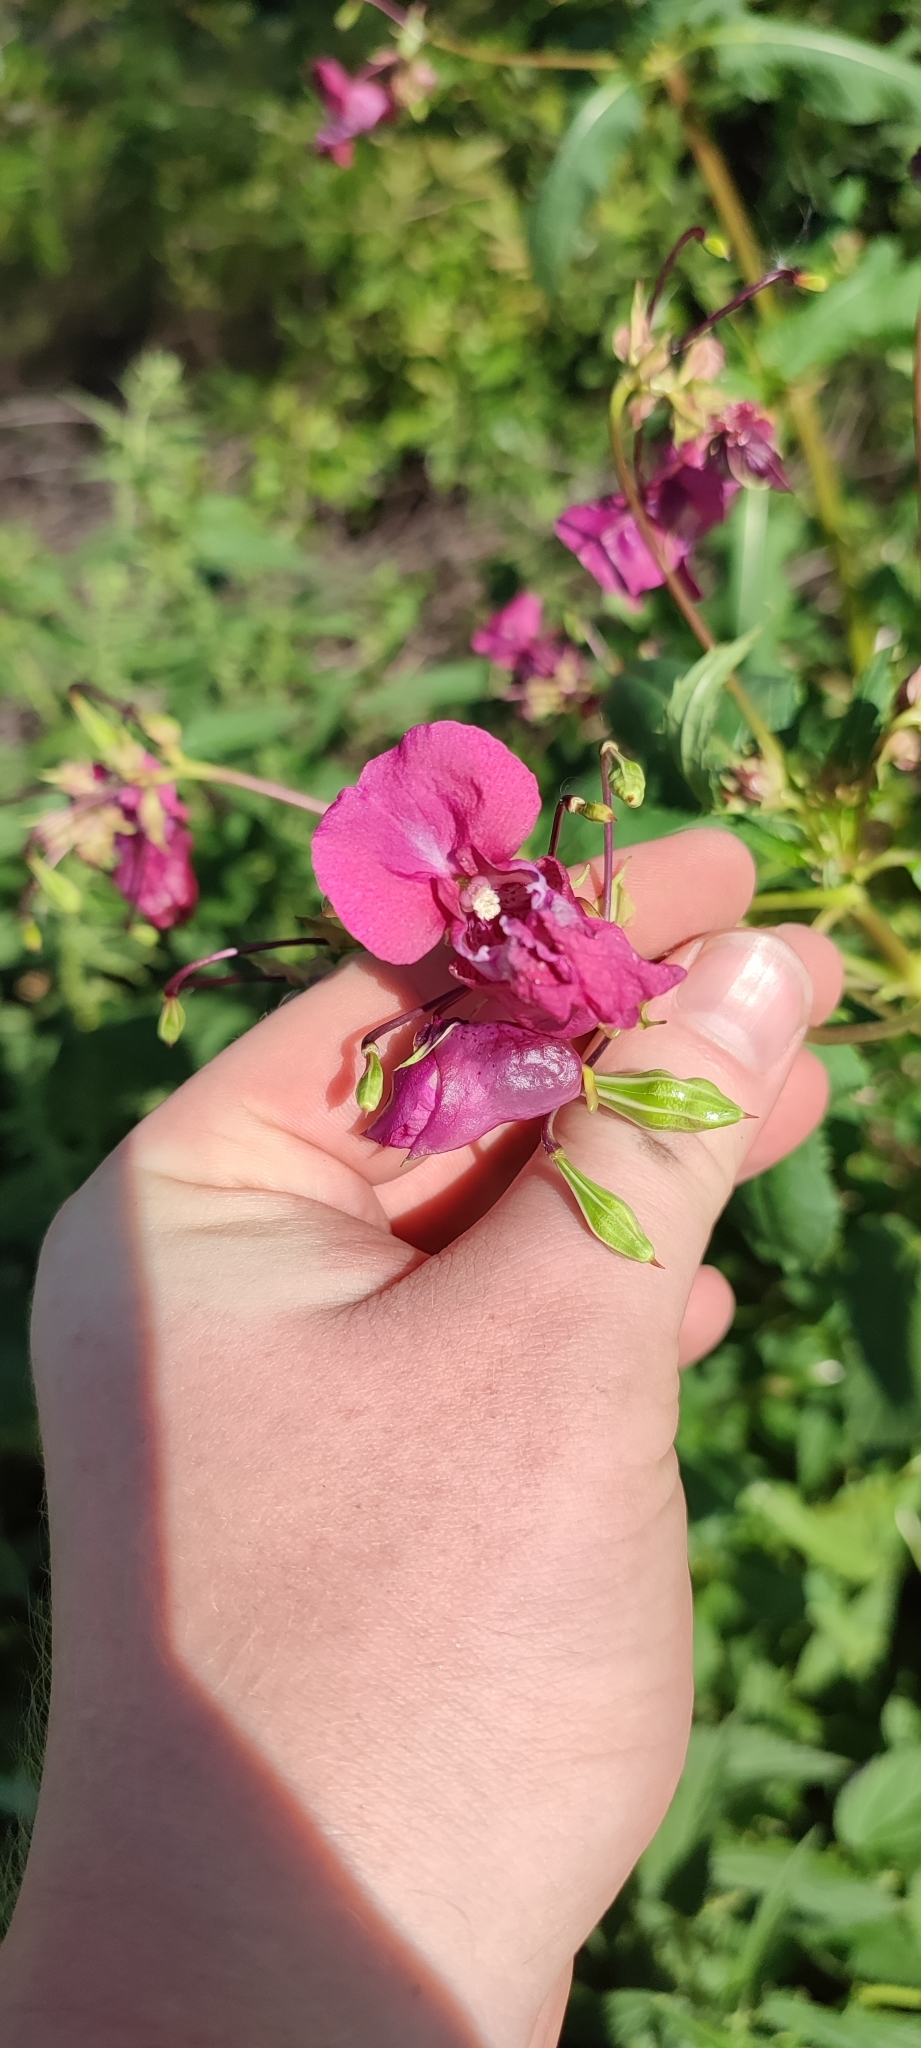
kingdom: Plantae
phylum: Tracheophyta
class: Magnoliopsida
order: Ericales
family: Balsaminaceae
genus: Impatiens
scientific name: Impatiens glandulifera
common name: Himalayan balsam
